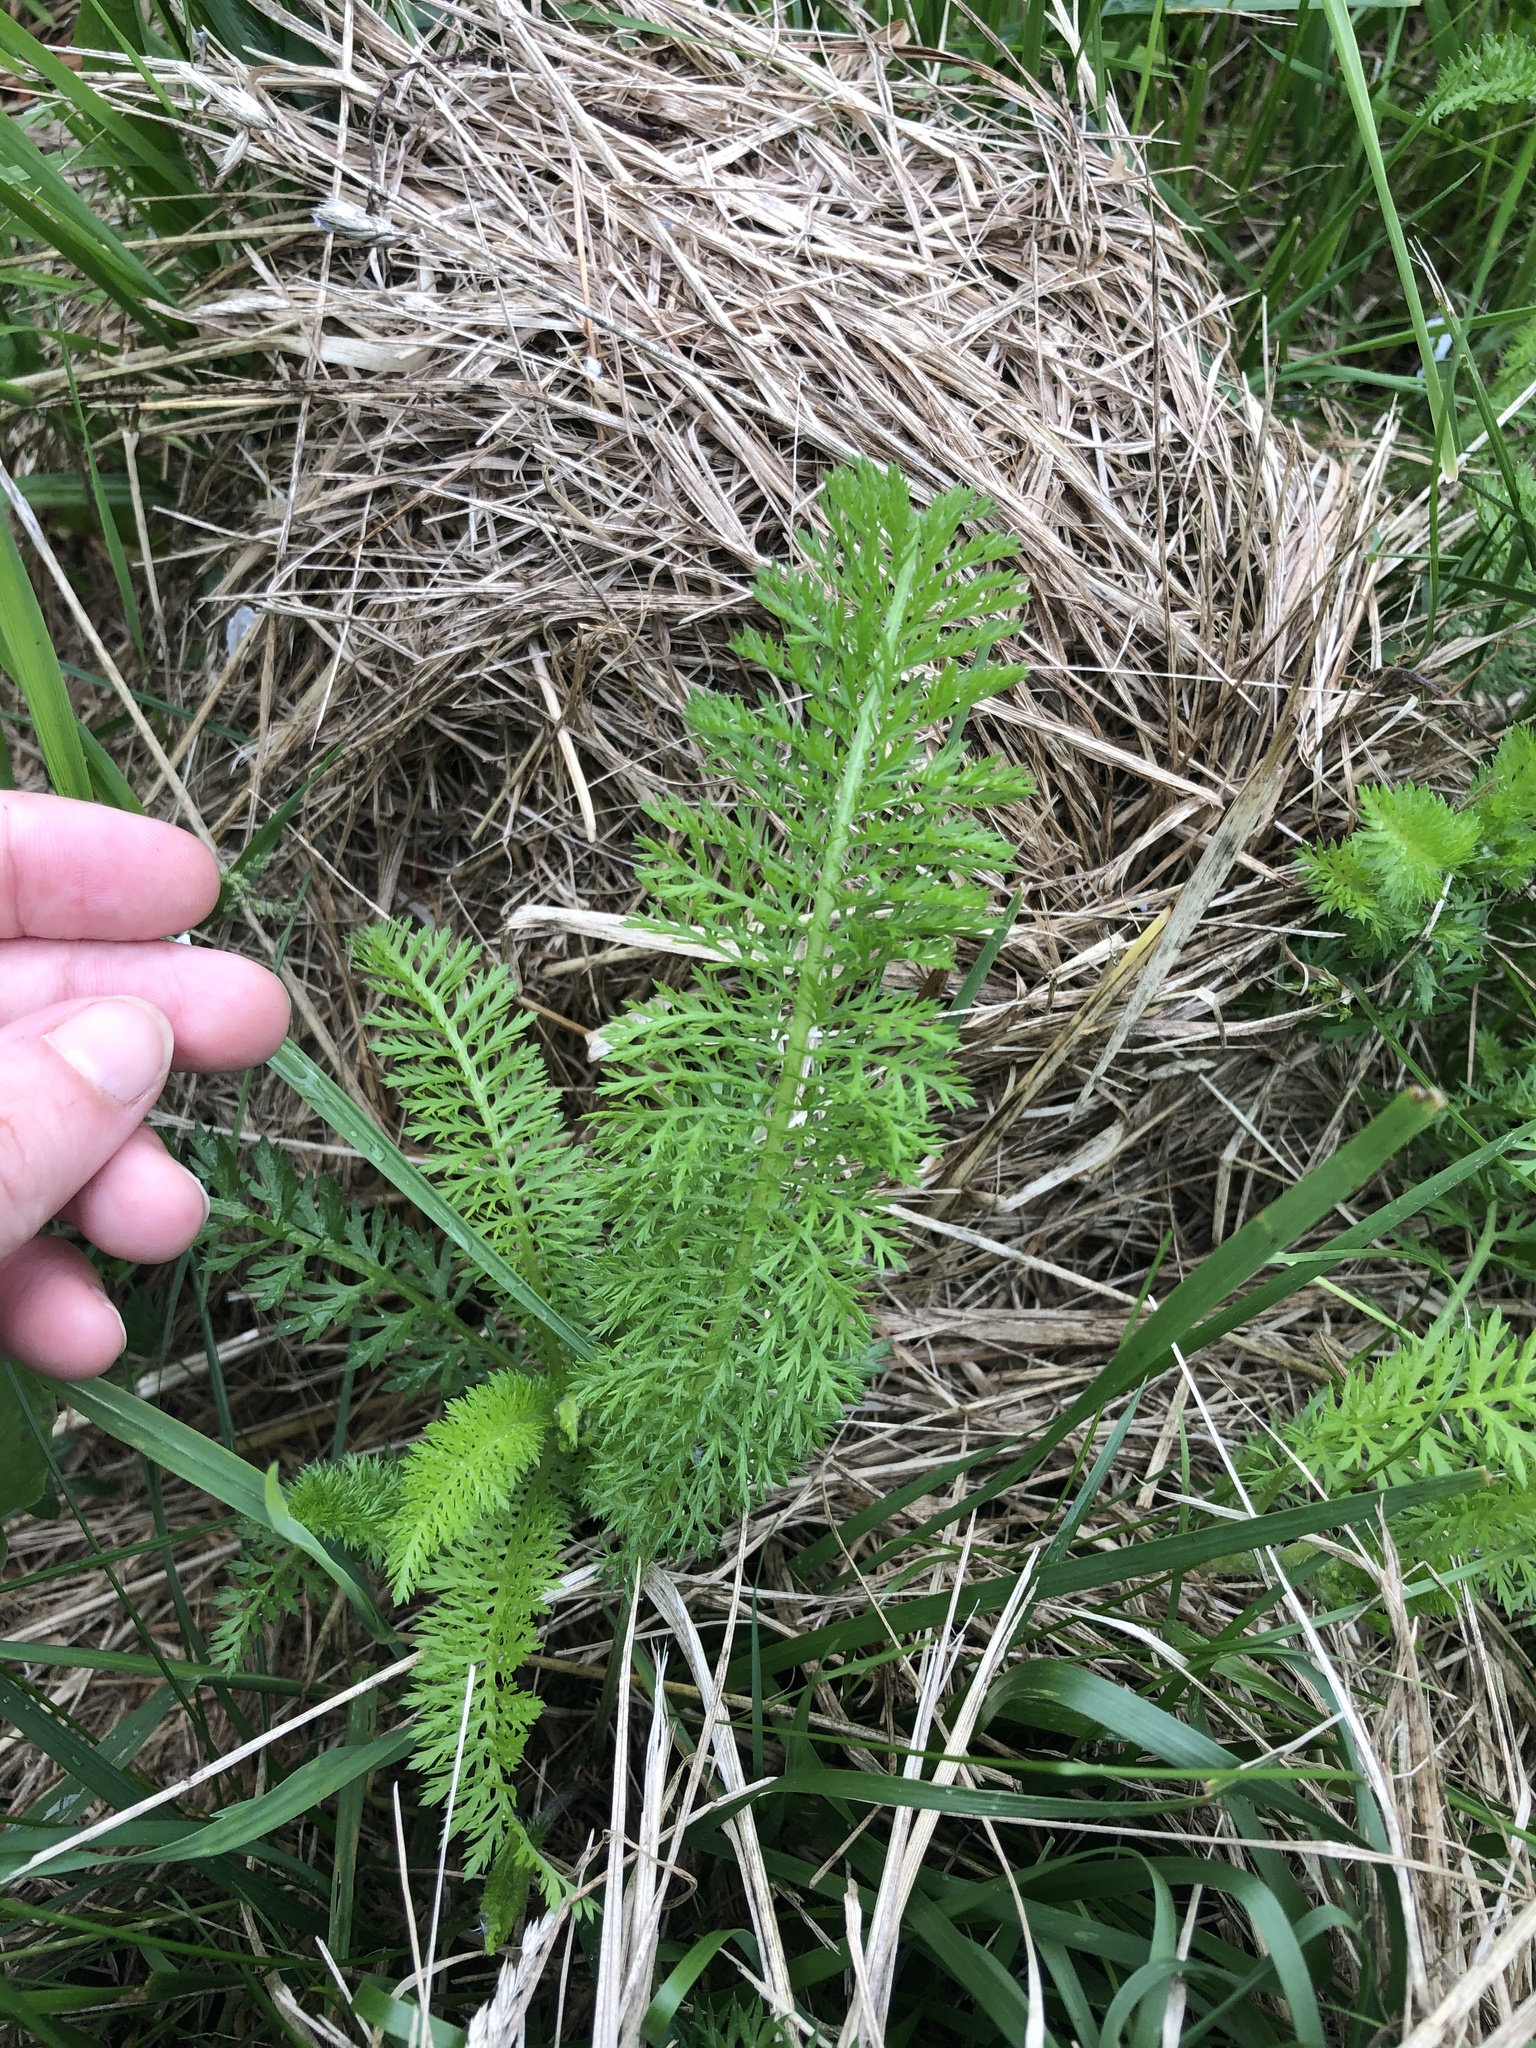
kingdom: Plantae
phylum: Tracheophyta
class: Magnoliopsida
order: Asterales
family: Asteraceae
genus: Achillea
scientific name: Achillea millefolium
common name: Yarrow
